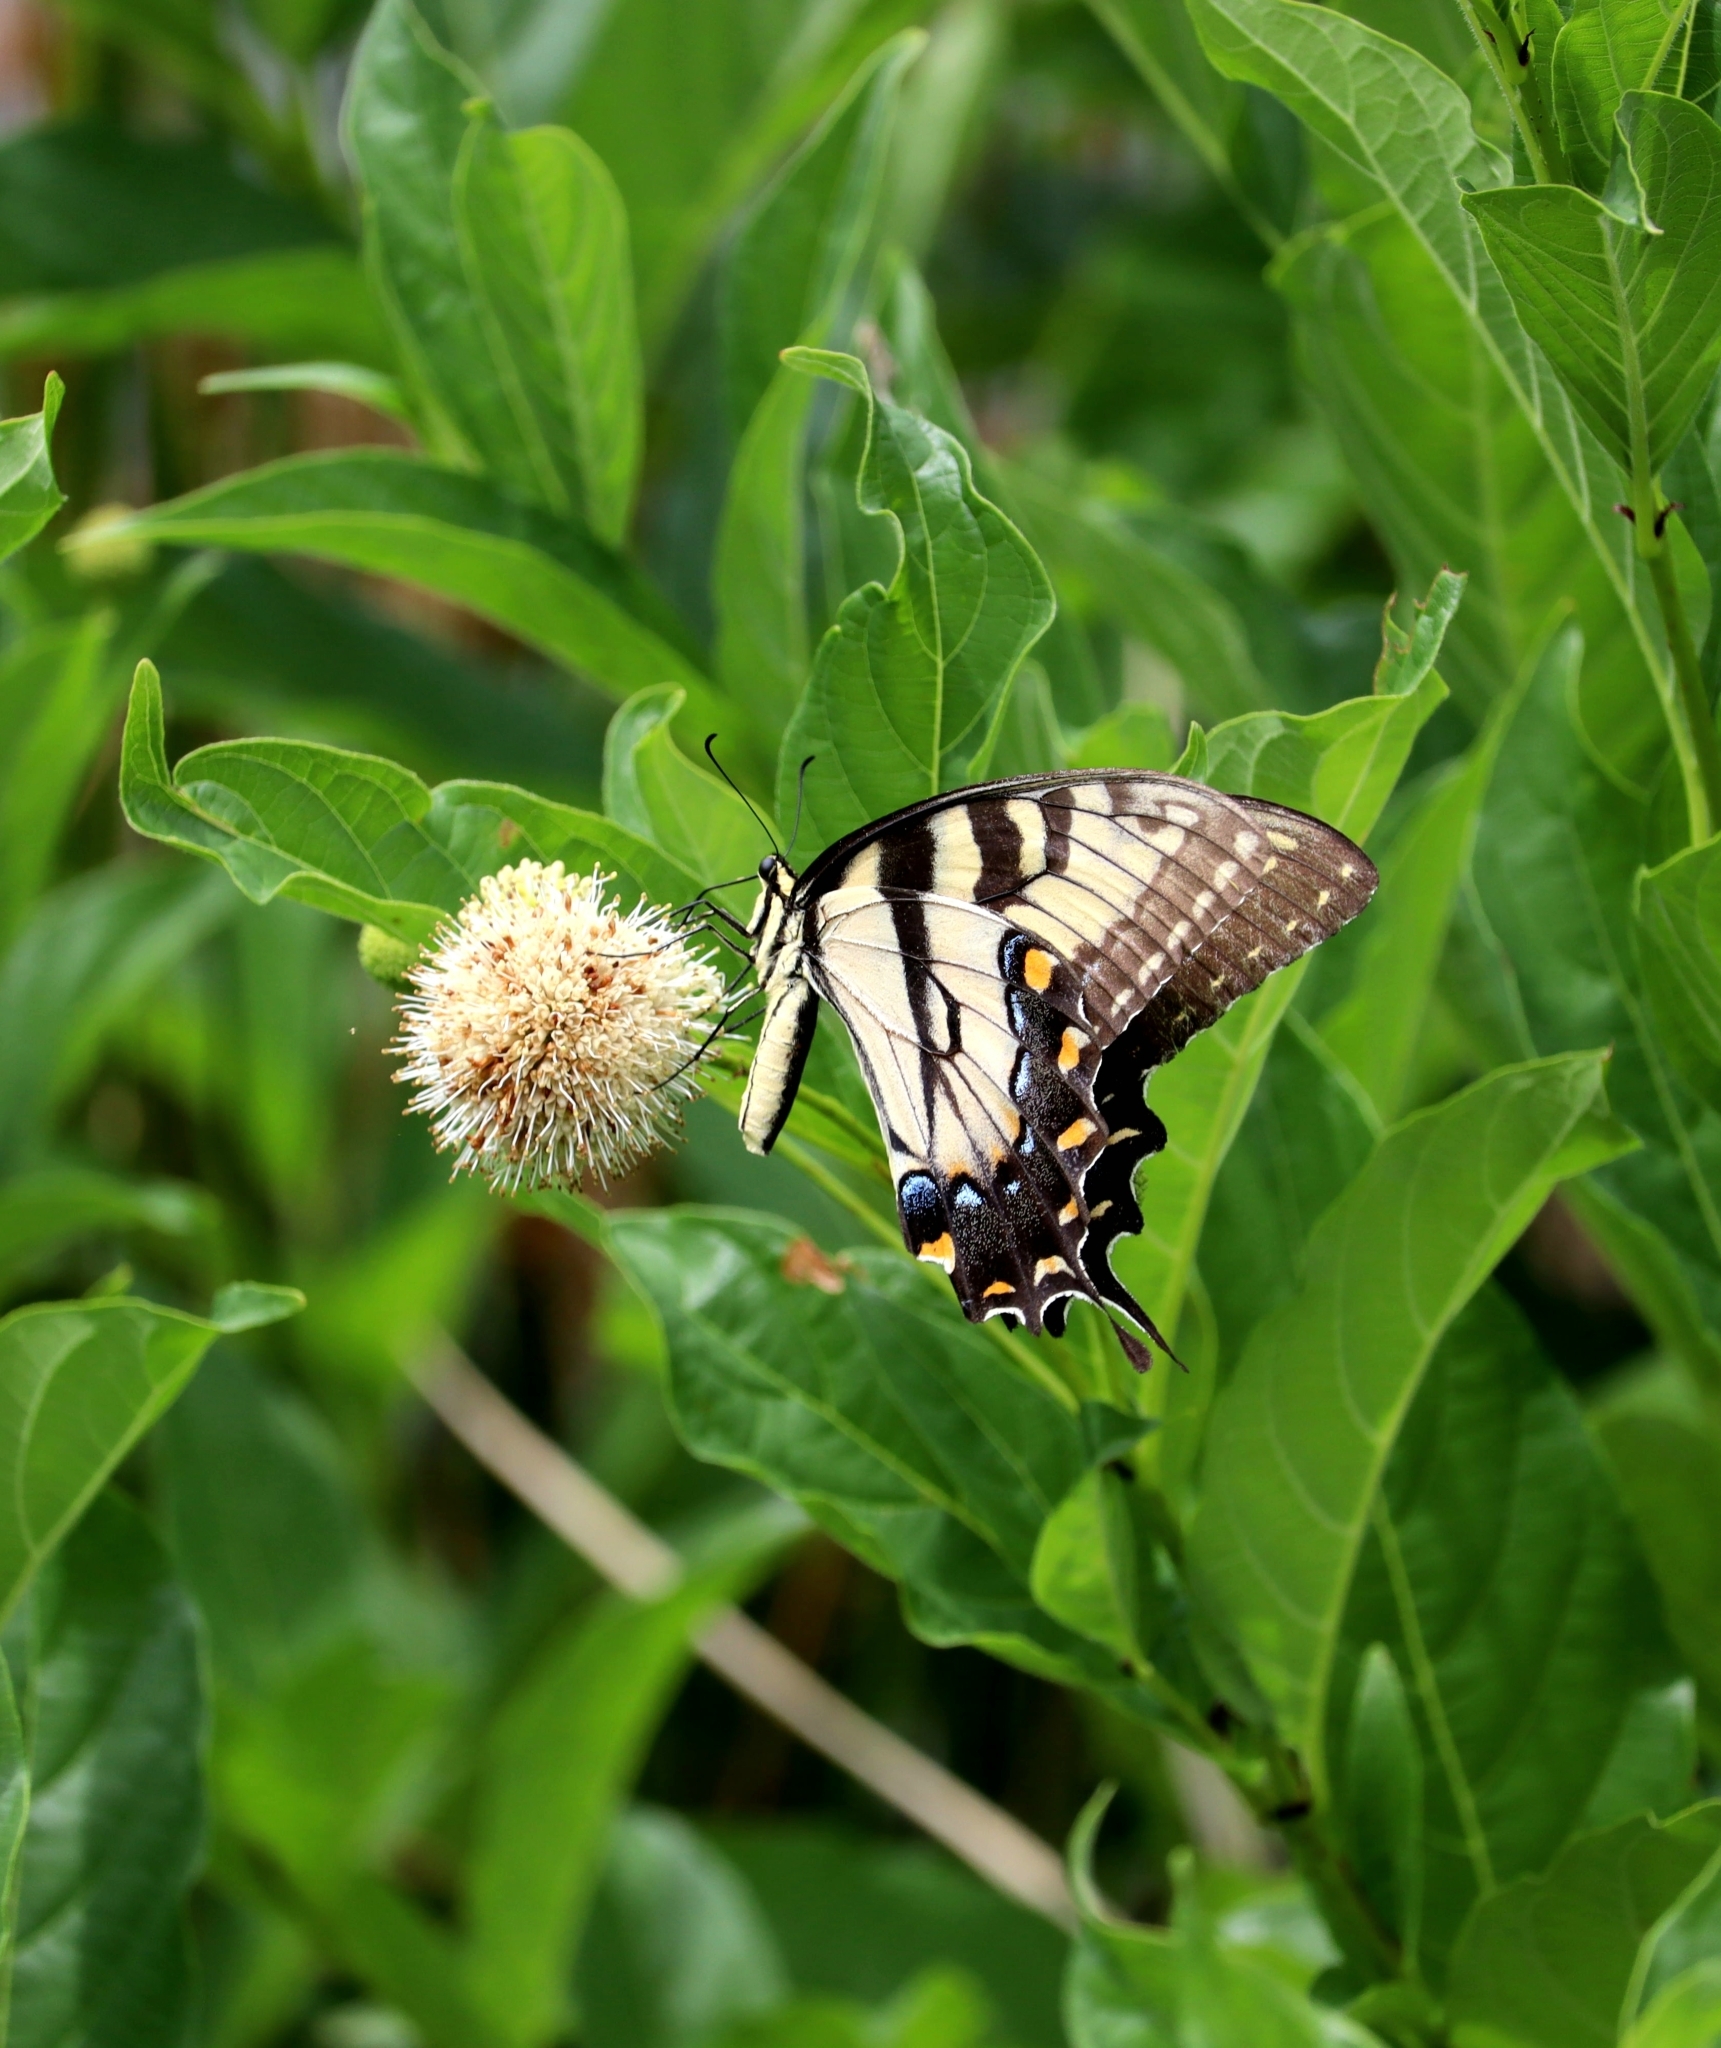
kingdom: Animalia
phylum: Arthropoda
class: Insecta
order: Lepidoptera
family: Papilionidae
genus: Papilio
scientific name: Papilio glaucus
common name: Tiger swallowtail
